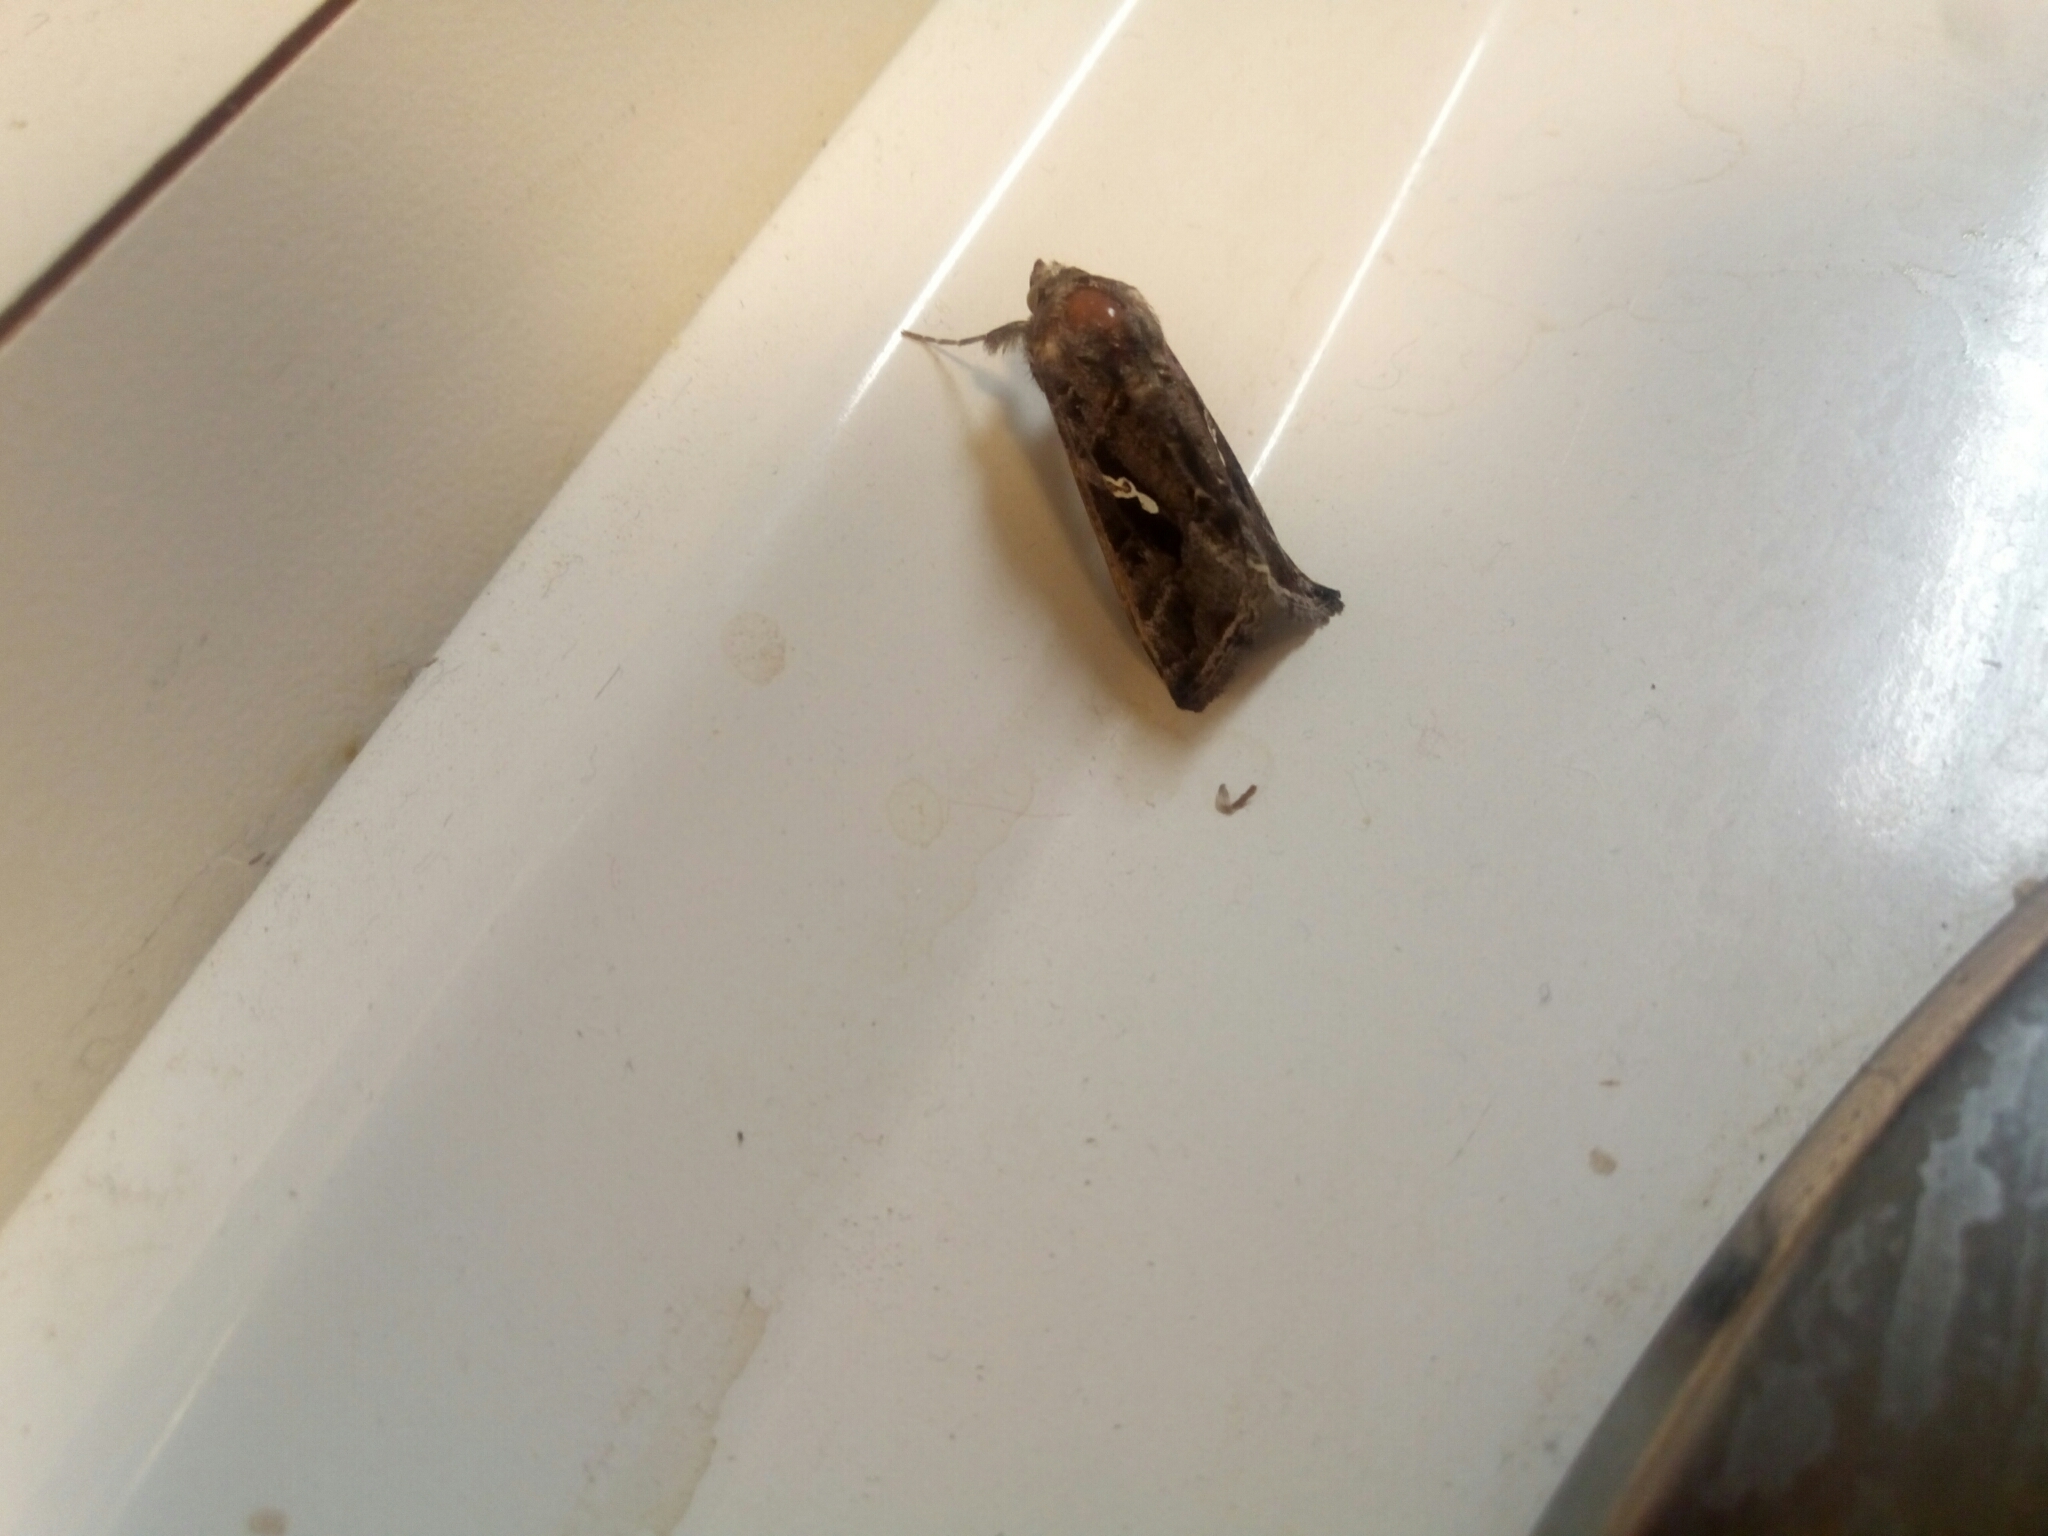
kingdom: Animalia
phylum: Arthropoda
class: Insecta
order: Lepidoptera
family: Noctuidae
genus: Chrysodeixis
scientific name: Chrysodeixis includens
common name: Cutworm moth
